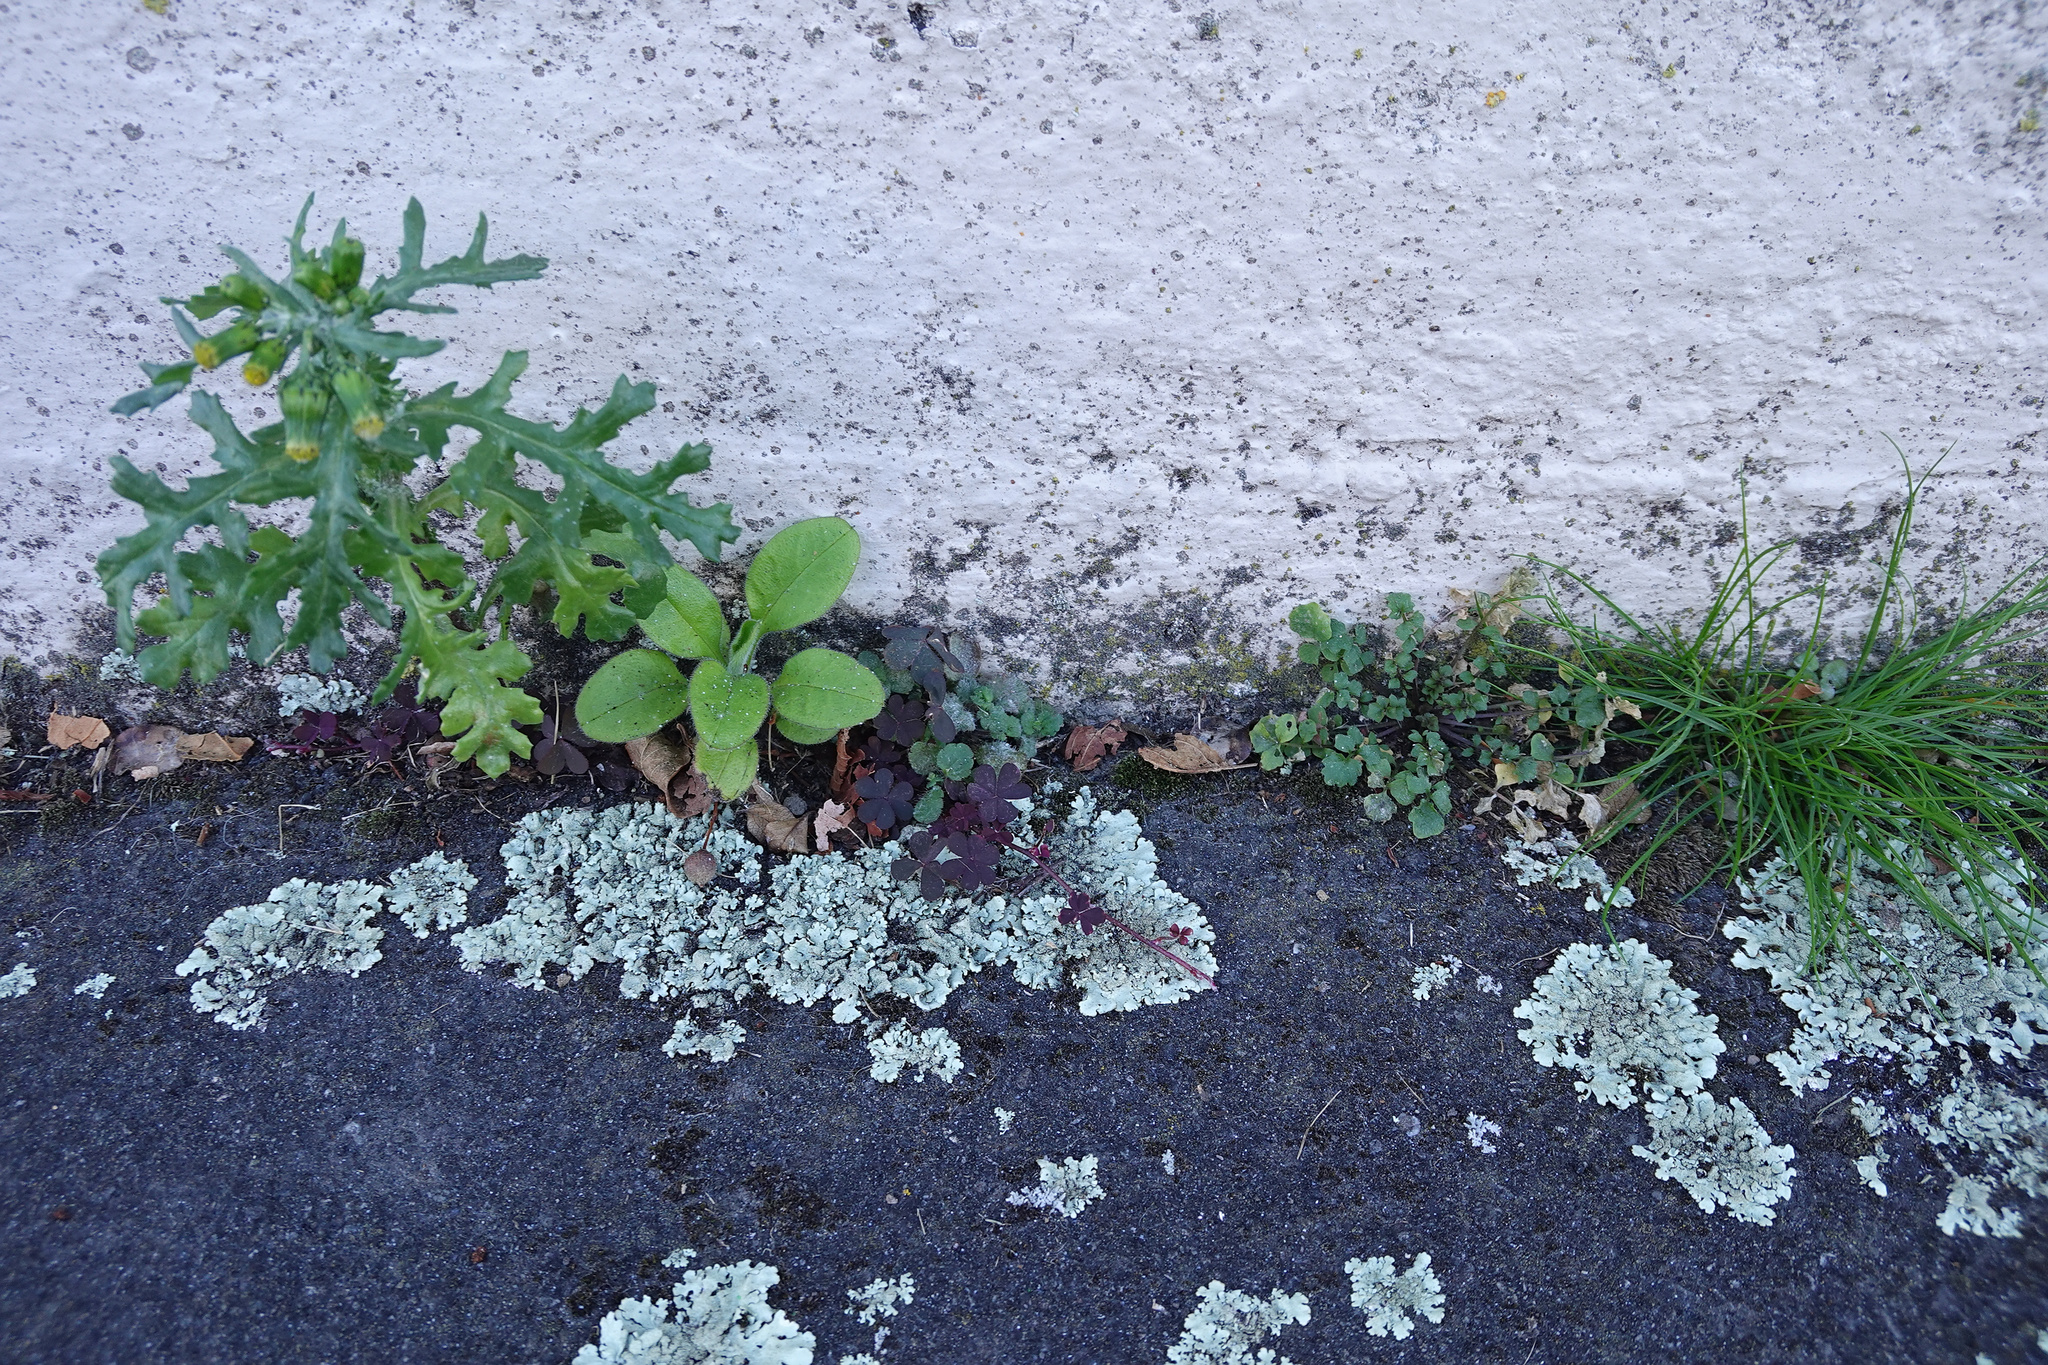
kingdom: Plantae
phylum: Tracheophyta
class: Magnoliopsida
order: Asterales
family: Asteraceae
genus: Senecio
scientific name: Senecio vulgaris
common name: Old-man-in-the-spring
